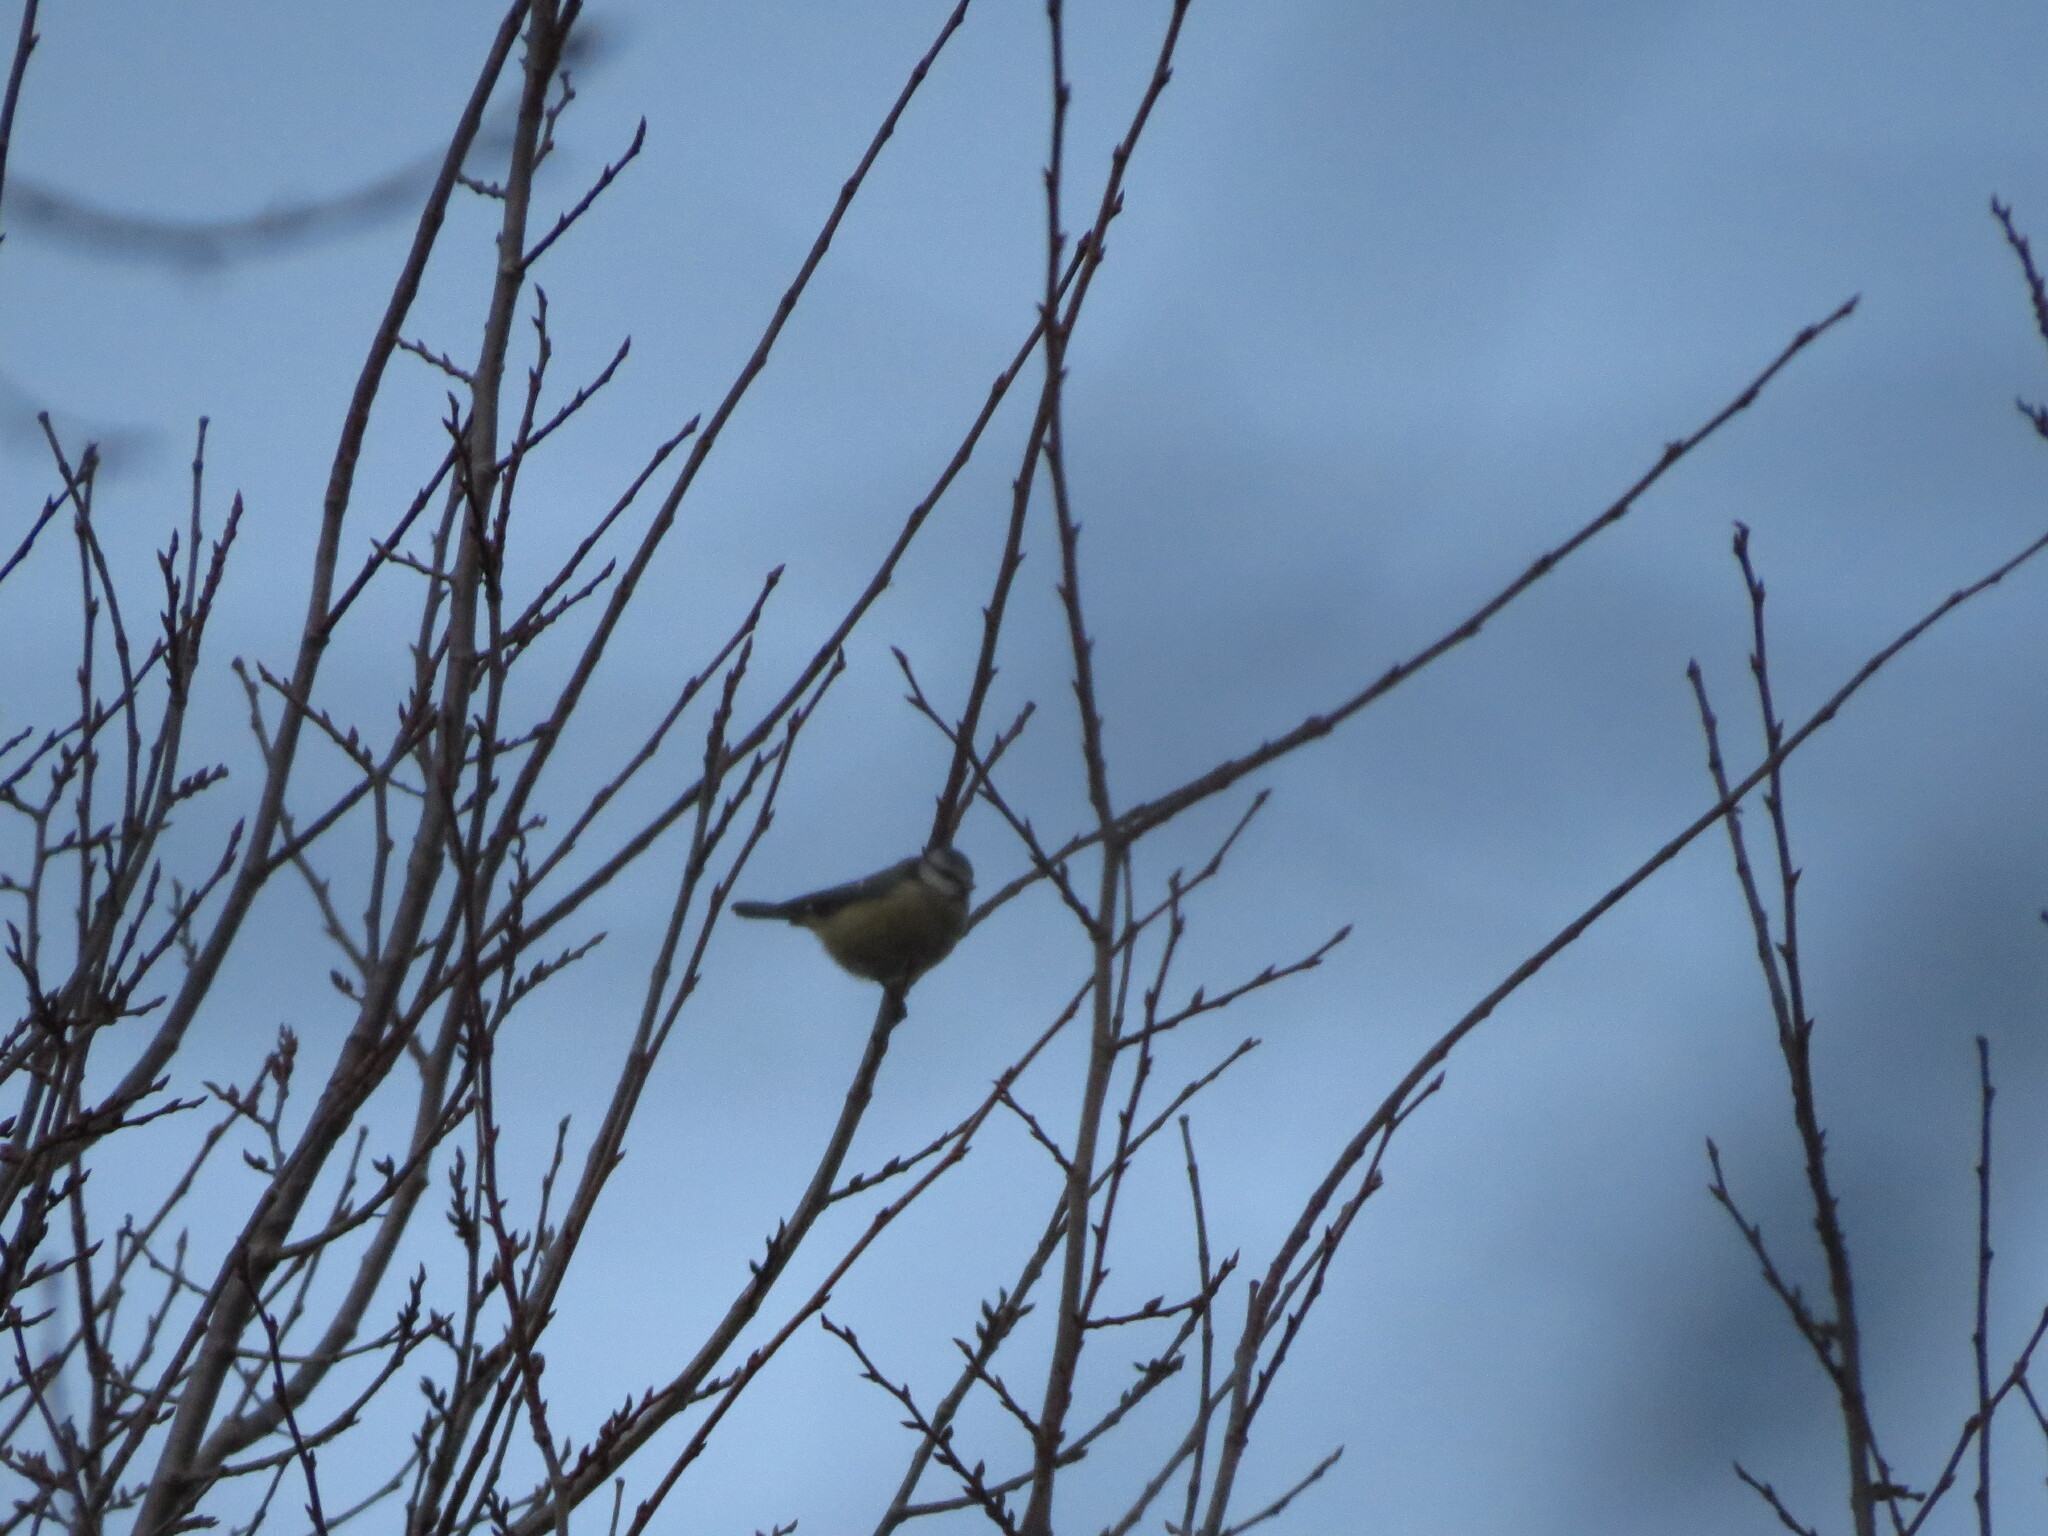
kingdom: Animalia
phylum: Chordata
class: Aves
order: Passeriformes
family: Paridae
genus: Cyanistes
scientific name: Cyanistes caeruleus
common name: Eurasian blue tit
